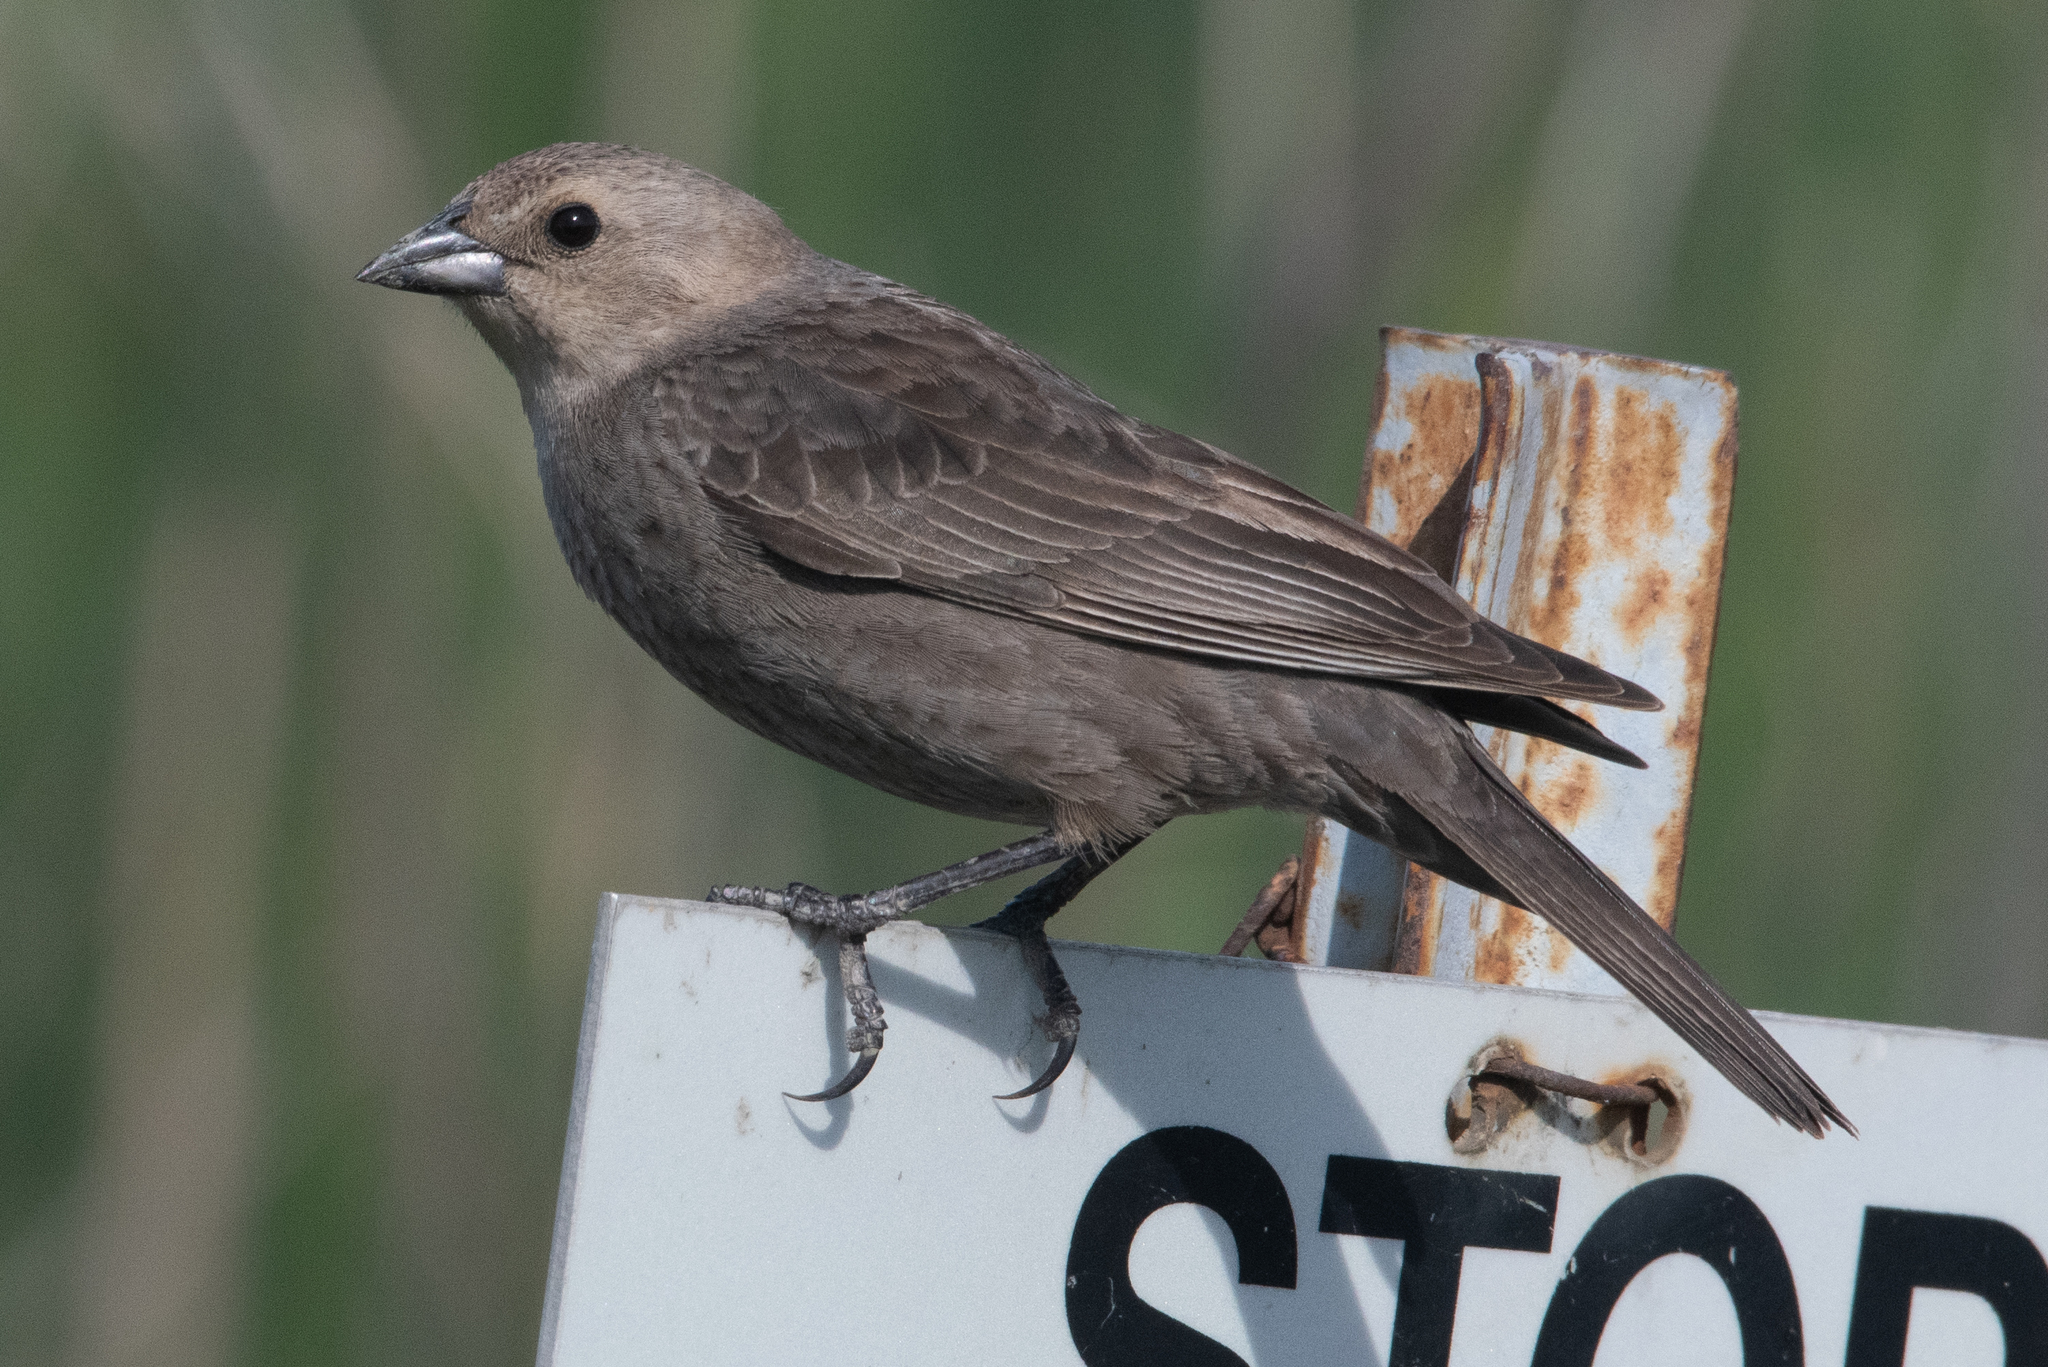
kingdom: Animalia
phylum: Chordata
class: Aves
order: Passeriformes
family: Icteridae
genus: Molothrus
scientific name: Molothrus ater
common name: Brown-headed cowbird
